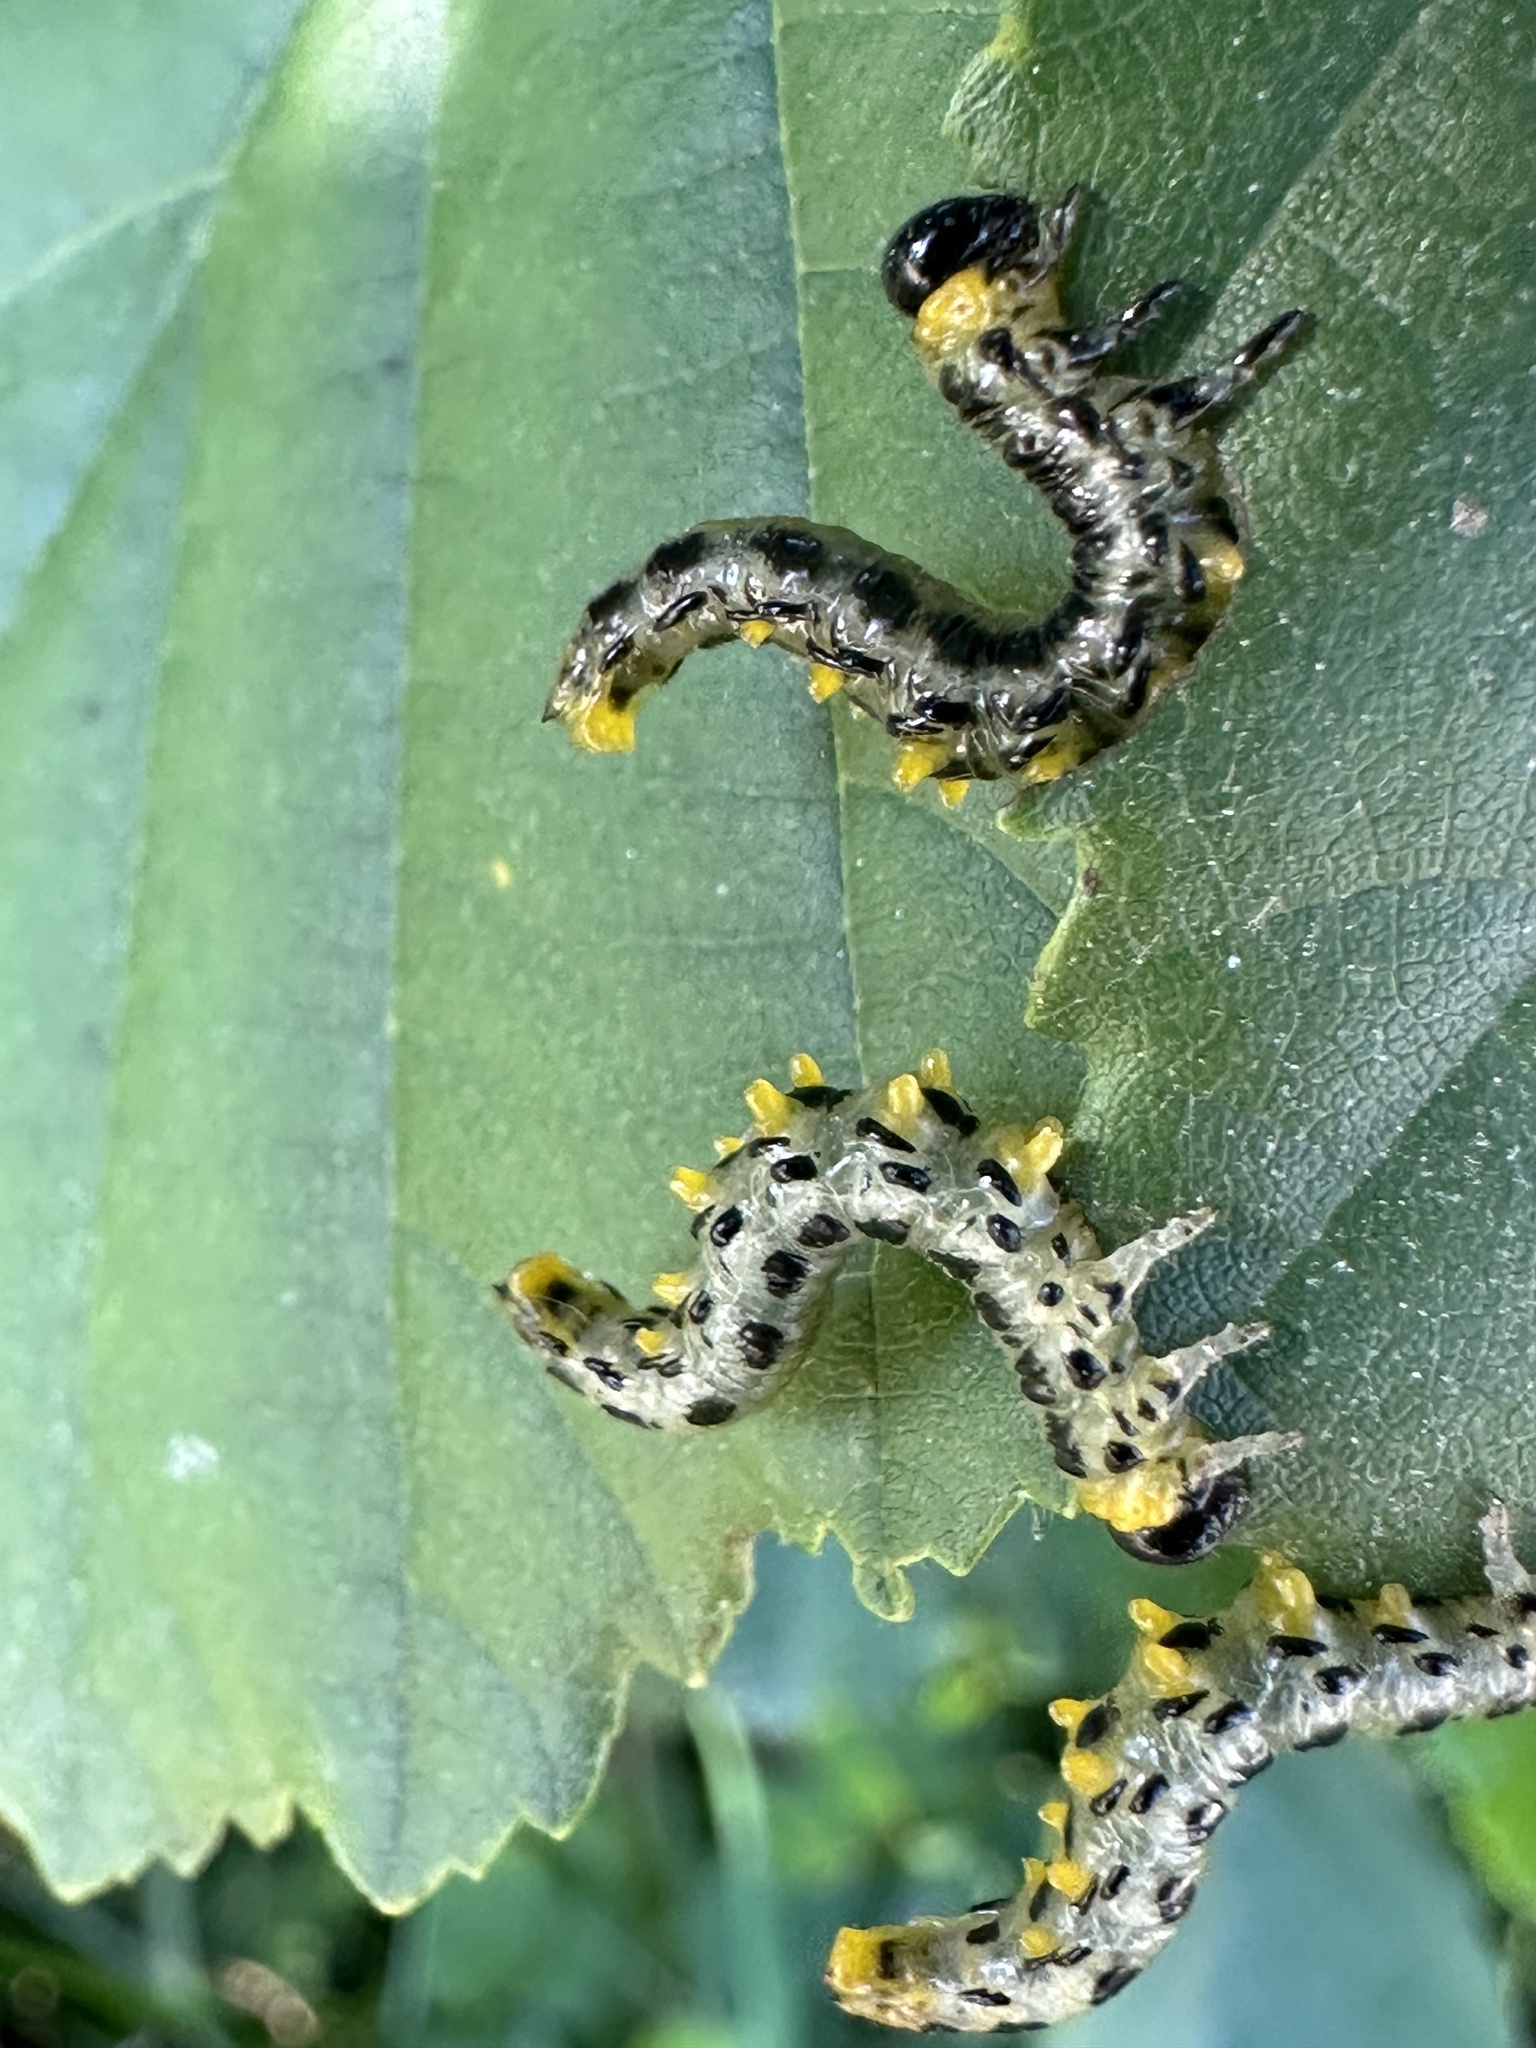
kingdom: Animalia
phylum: Arthropoda
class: Insecta
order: Hymenoptera
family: Tenthredinidae
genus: Craesus
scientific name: Craesus septentrionalis
